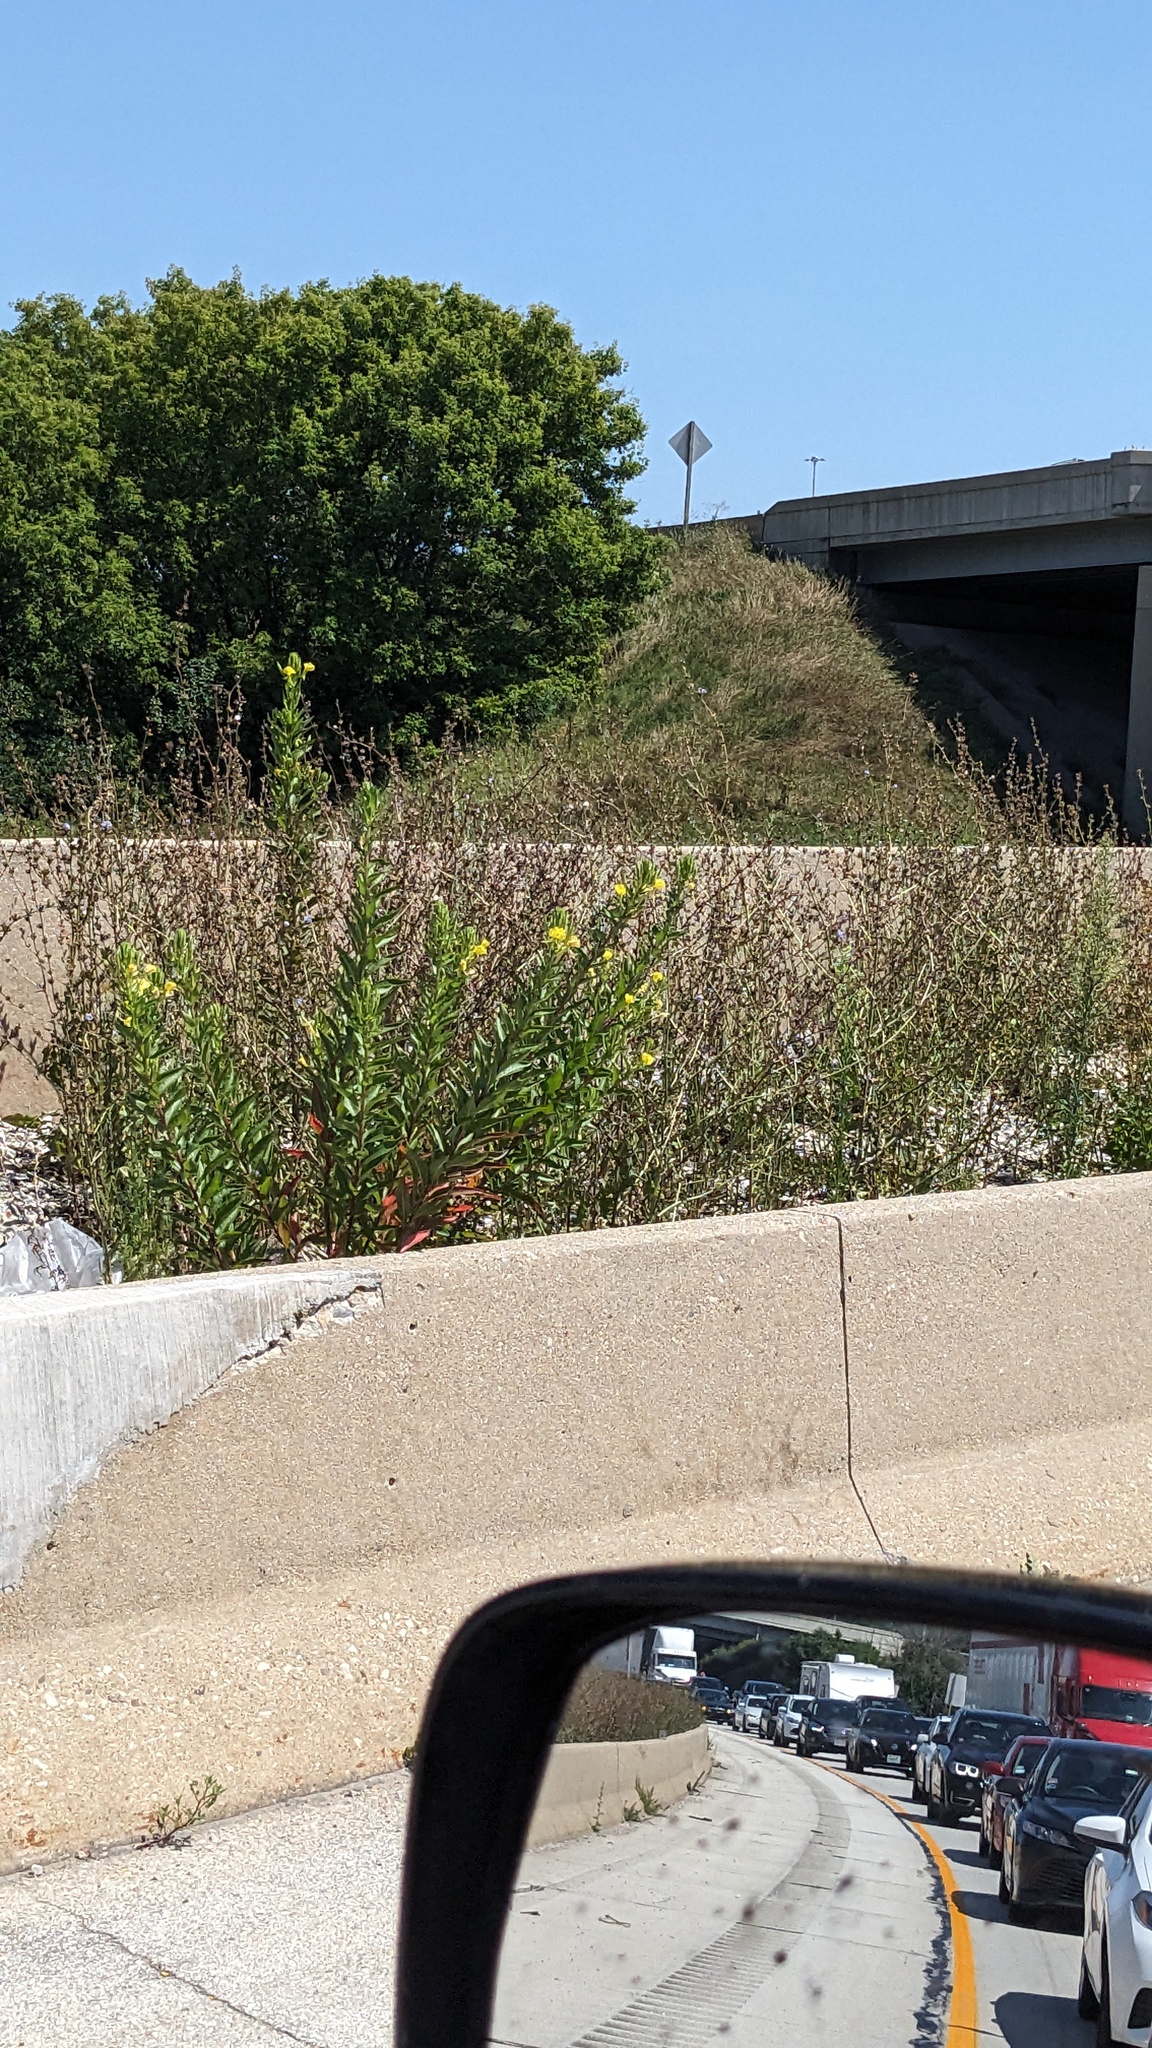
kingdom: Plantae
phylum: Tracheophyta
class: Magnoliopsida
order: Myrtales
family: Onagraceae
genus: Oenothera
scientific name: Oenothera biennis
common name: Common evening-primrose
